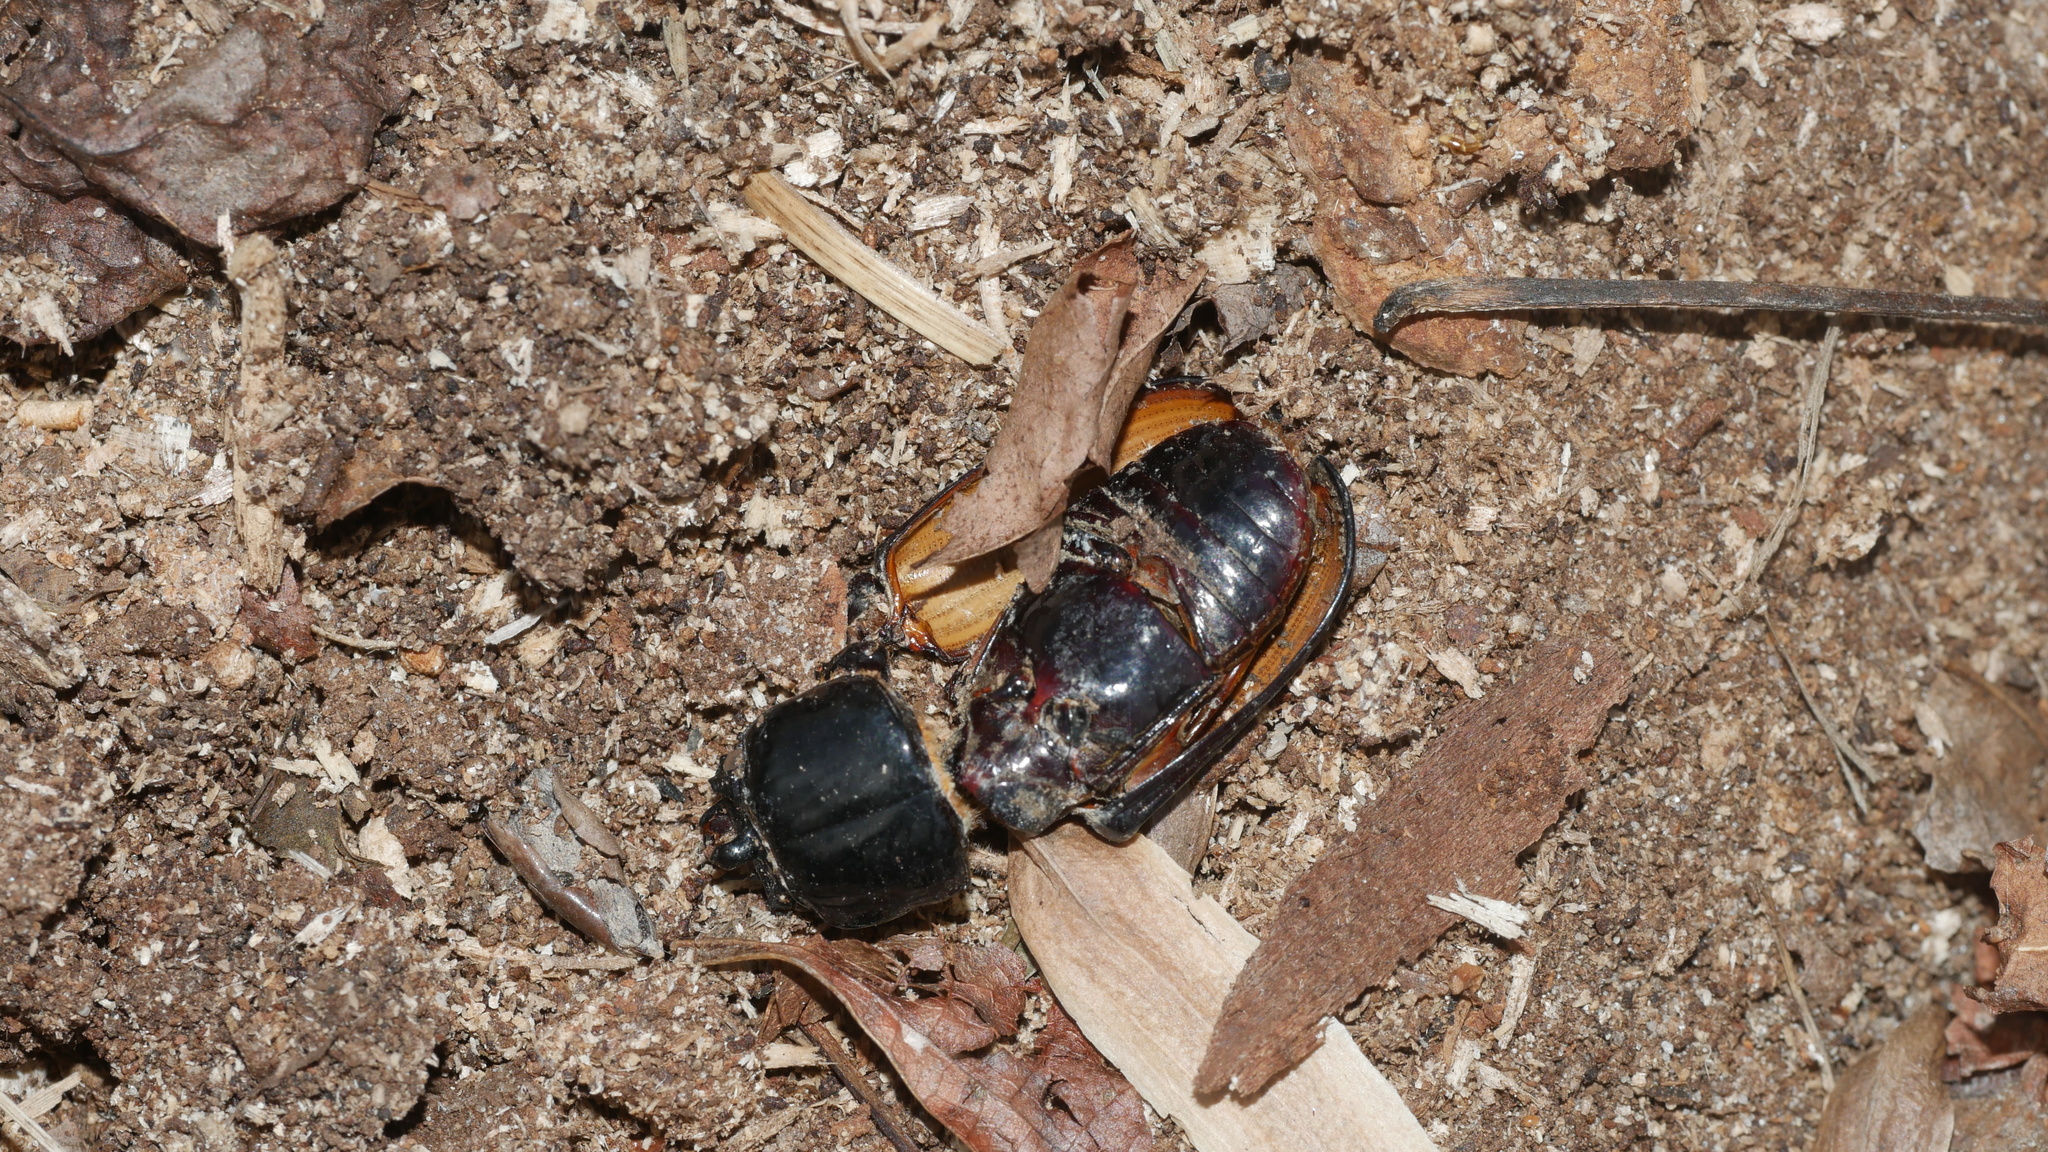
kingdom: Animalia
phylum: Arthropoda
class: Insecta
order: Coleoptera
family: Passalidae
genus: Odontotaenius
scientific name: Odontotaenius disjunctus
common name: Patent leather beetle
